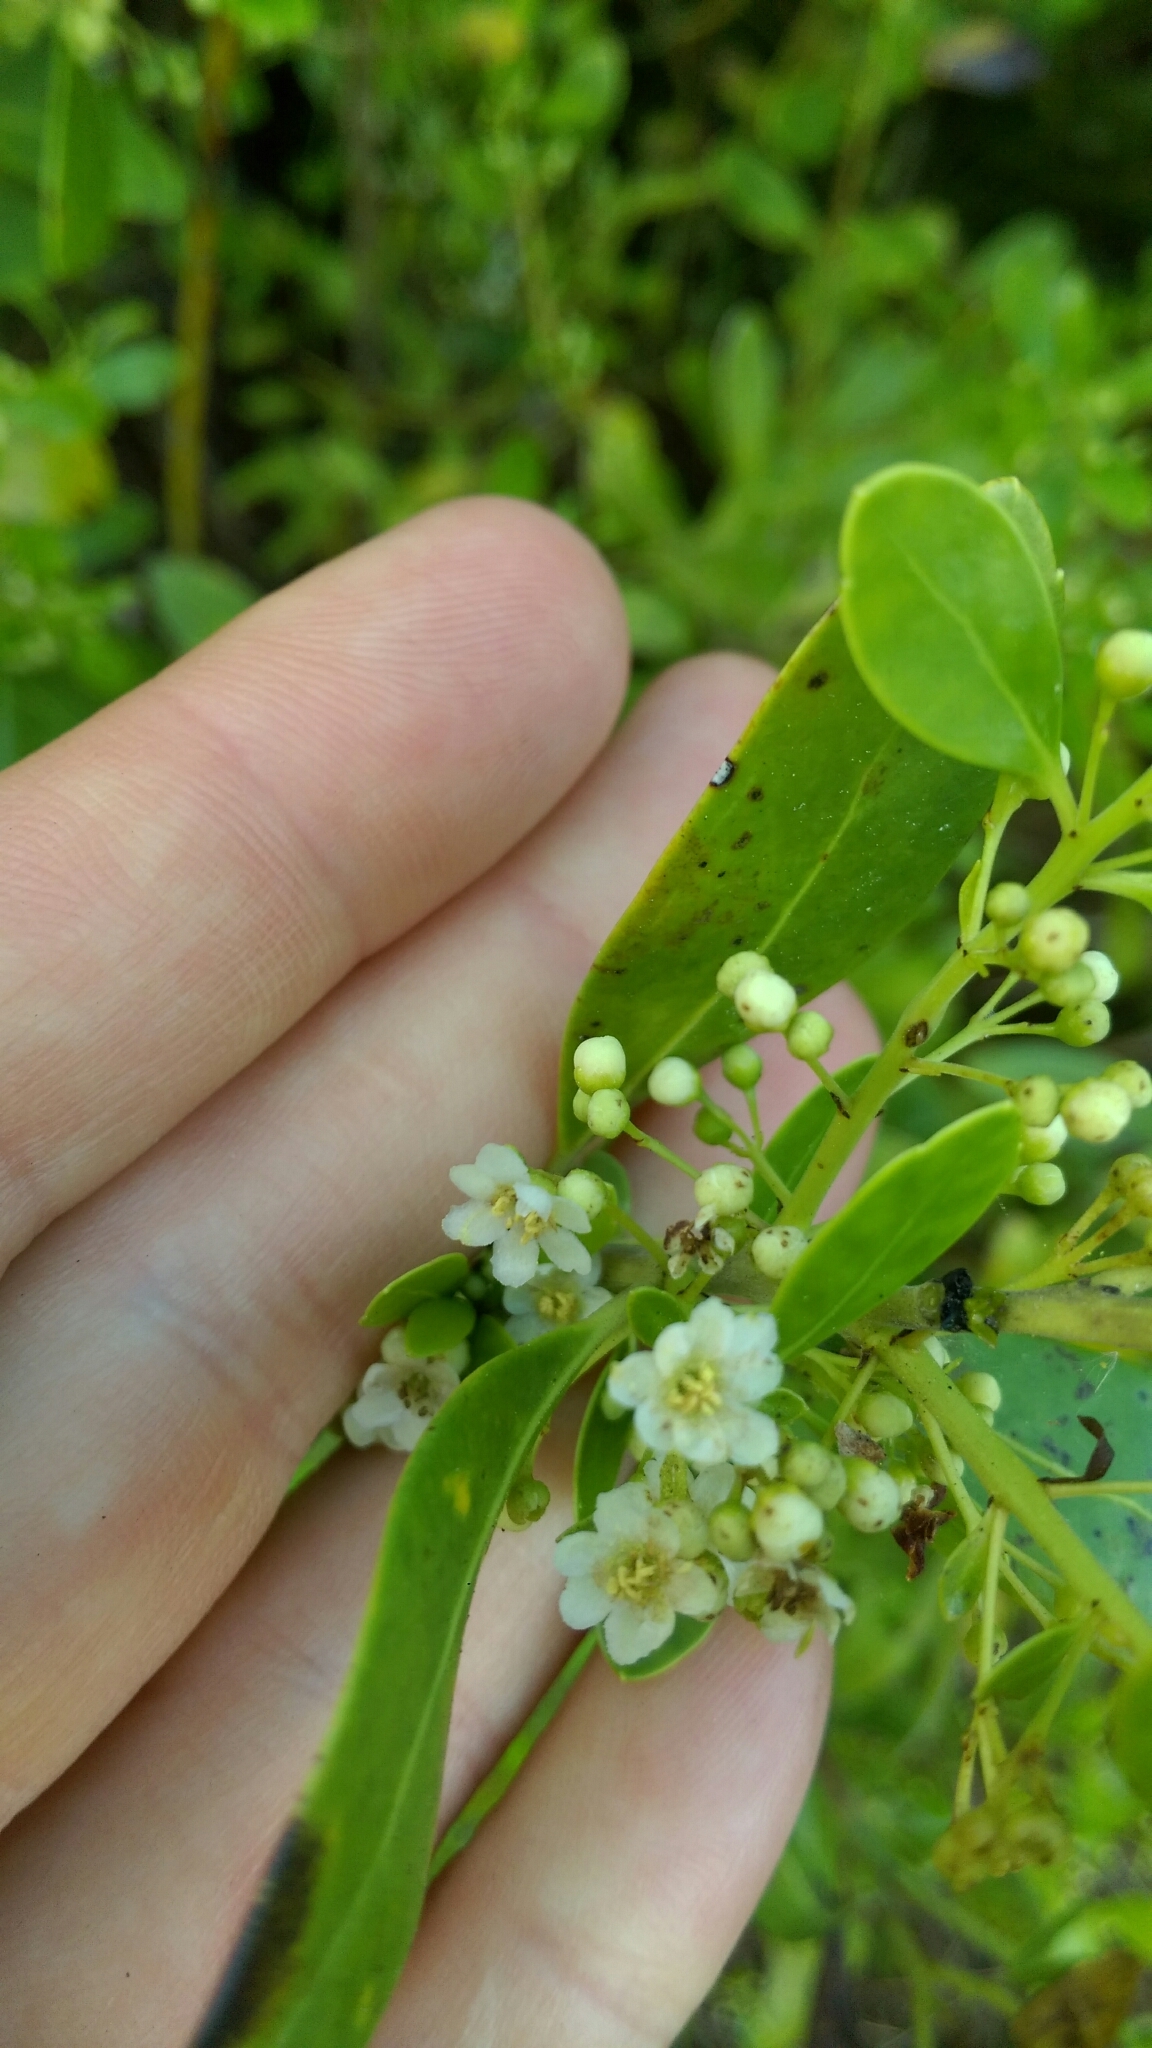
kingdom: Plantae
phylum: Tracheophyta
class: Magnoliopsida
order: Aquifoliales
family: Aquifoliaceae
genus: Ilex
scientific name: Ilex glabra
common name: Bitter gallberry
